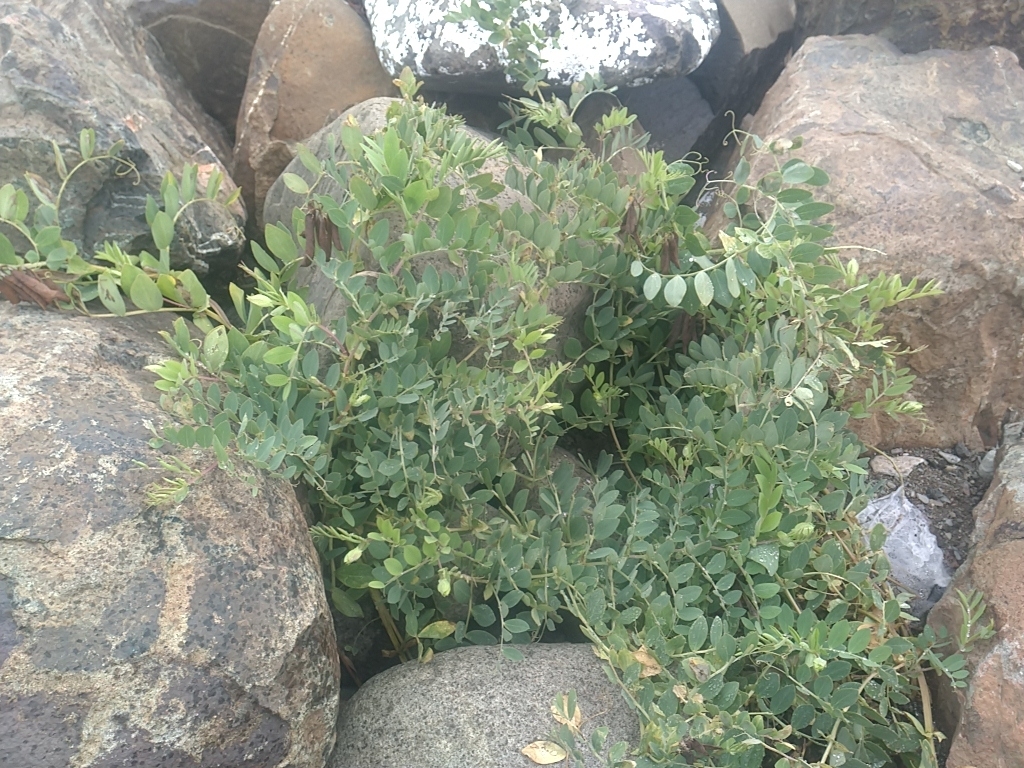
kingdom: Plantae
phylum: Tracheophyta
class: Magnoliopsida
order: Fabales
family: Fabaceae
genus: Lathyrus
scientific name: Lathyrus japonicus
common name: Sea pea
